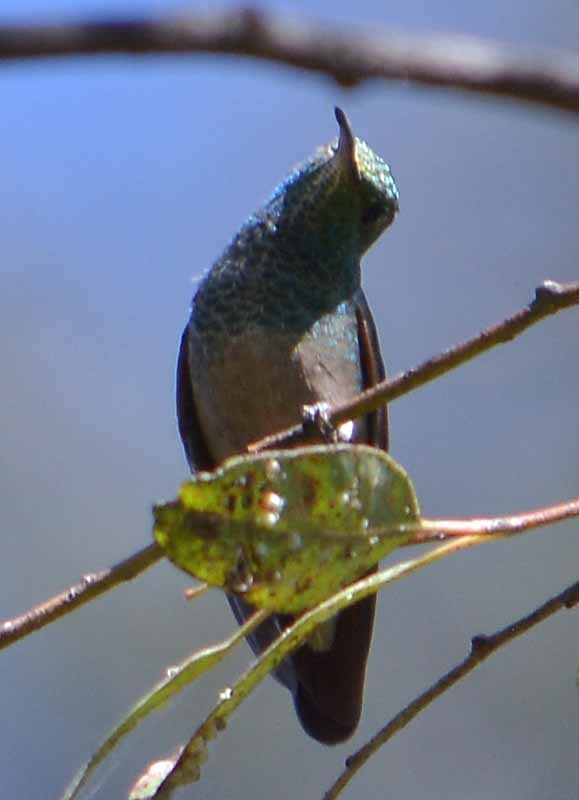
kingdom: Animalia
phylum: Chordata
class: Aves
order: Apodiformes
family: Trochilidae
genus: Saucerottia
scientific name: Saucerottia beryllina
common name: Berylline hummingbird
